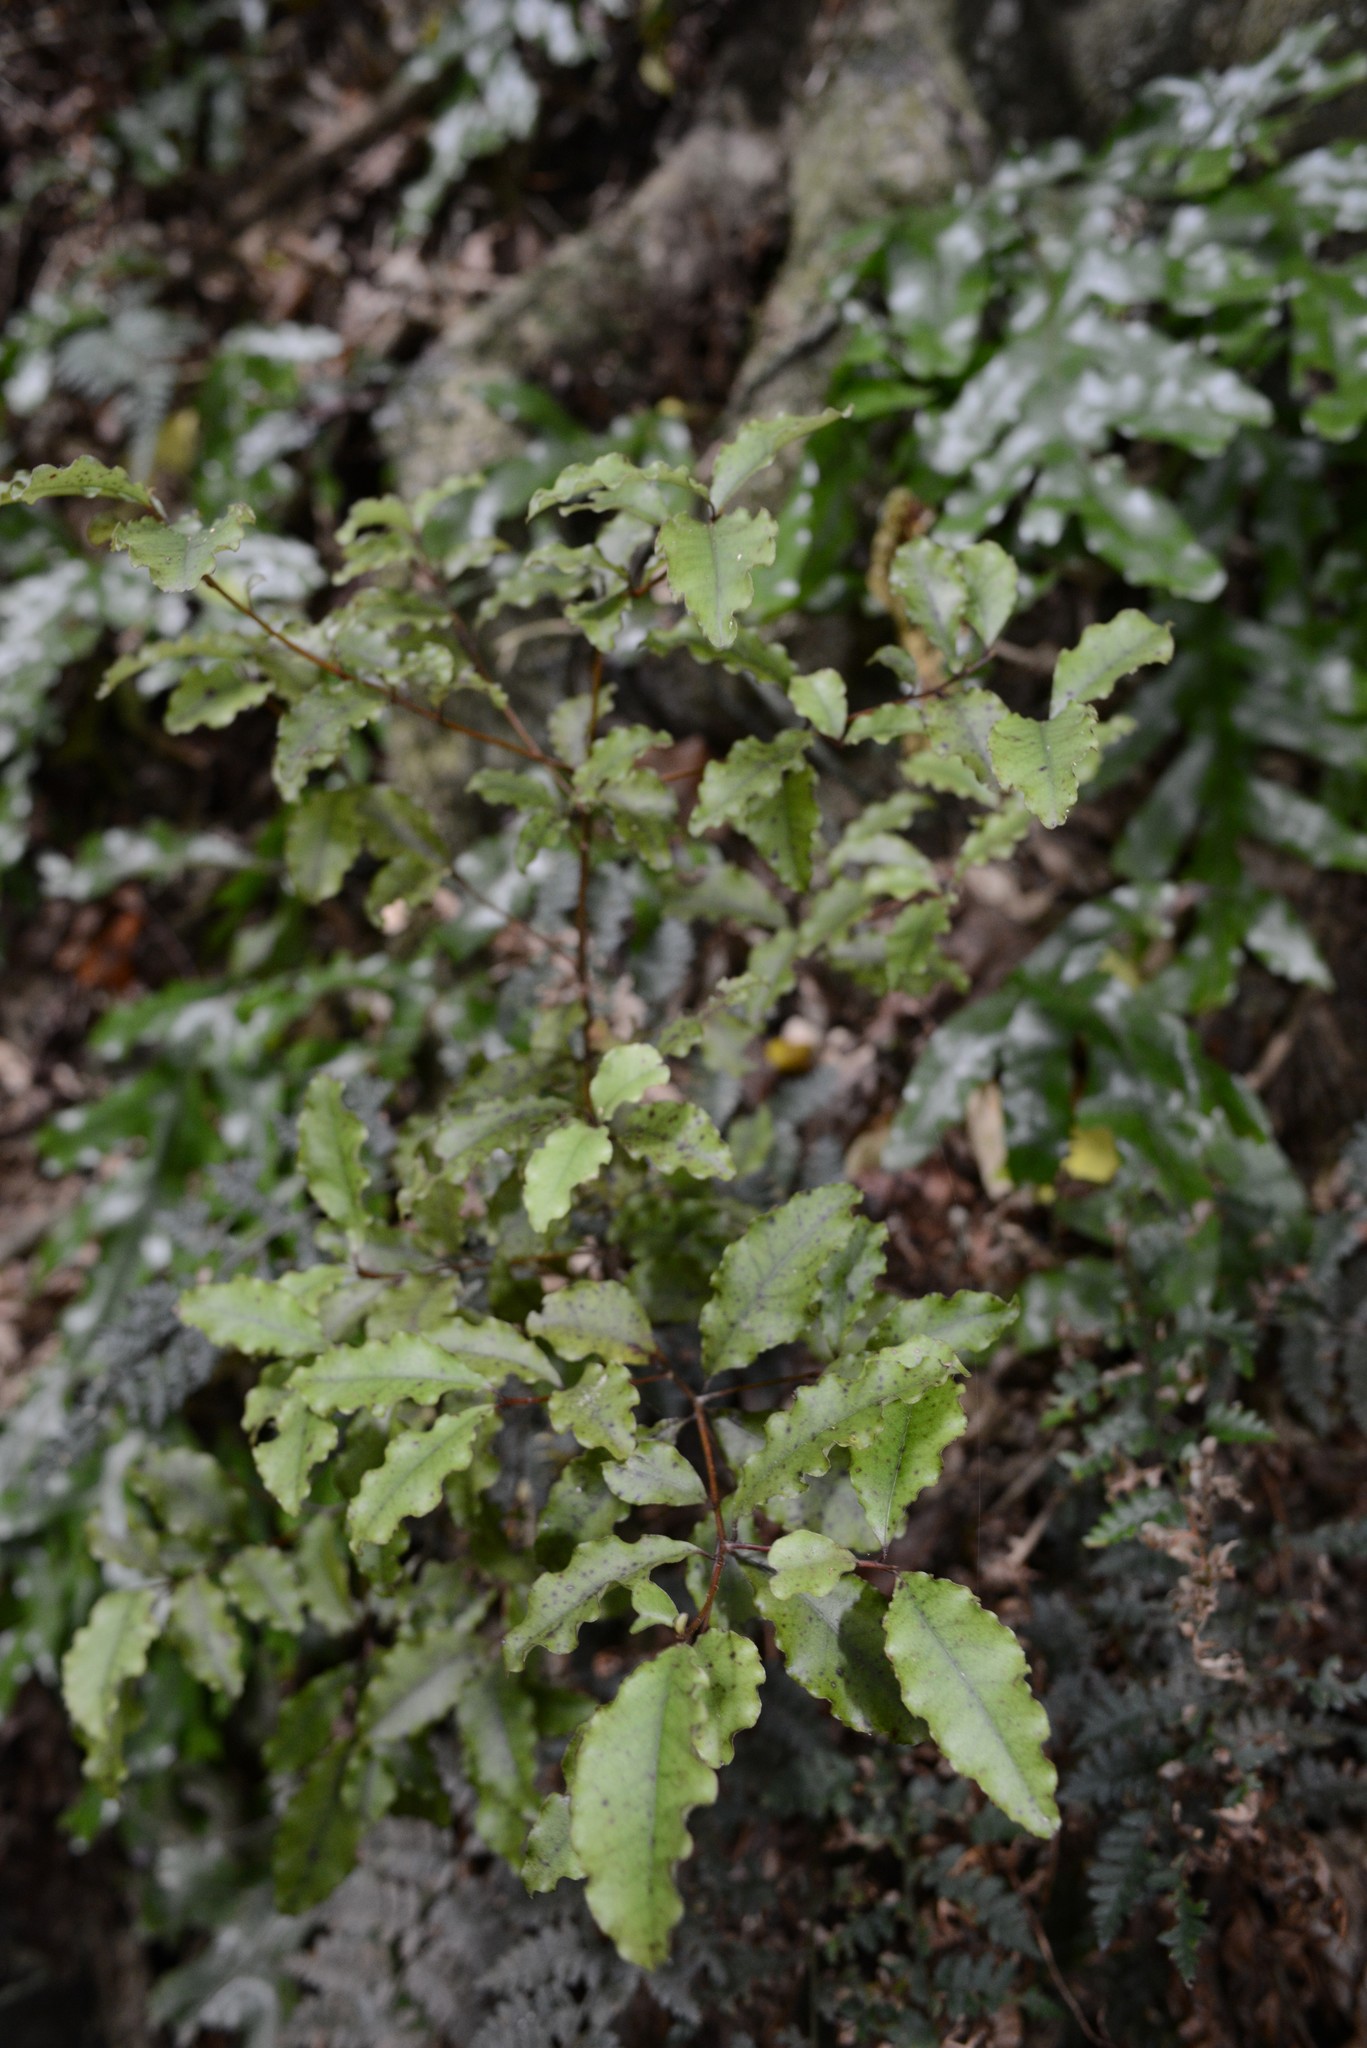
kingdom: Plantae
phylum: Tracheophyta
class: Magnoliopsida
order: Ericales
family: Primulaceae
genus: Myrsine
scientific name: Myrsine australis
